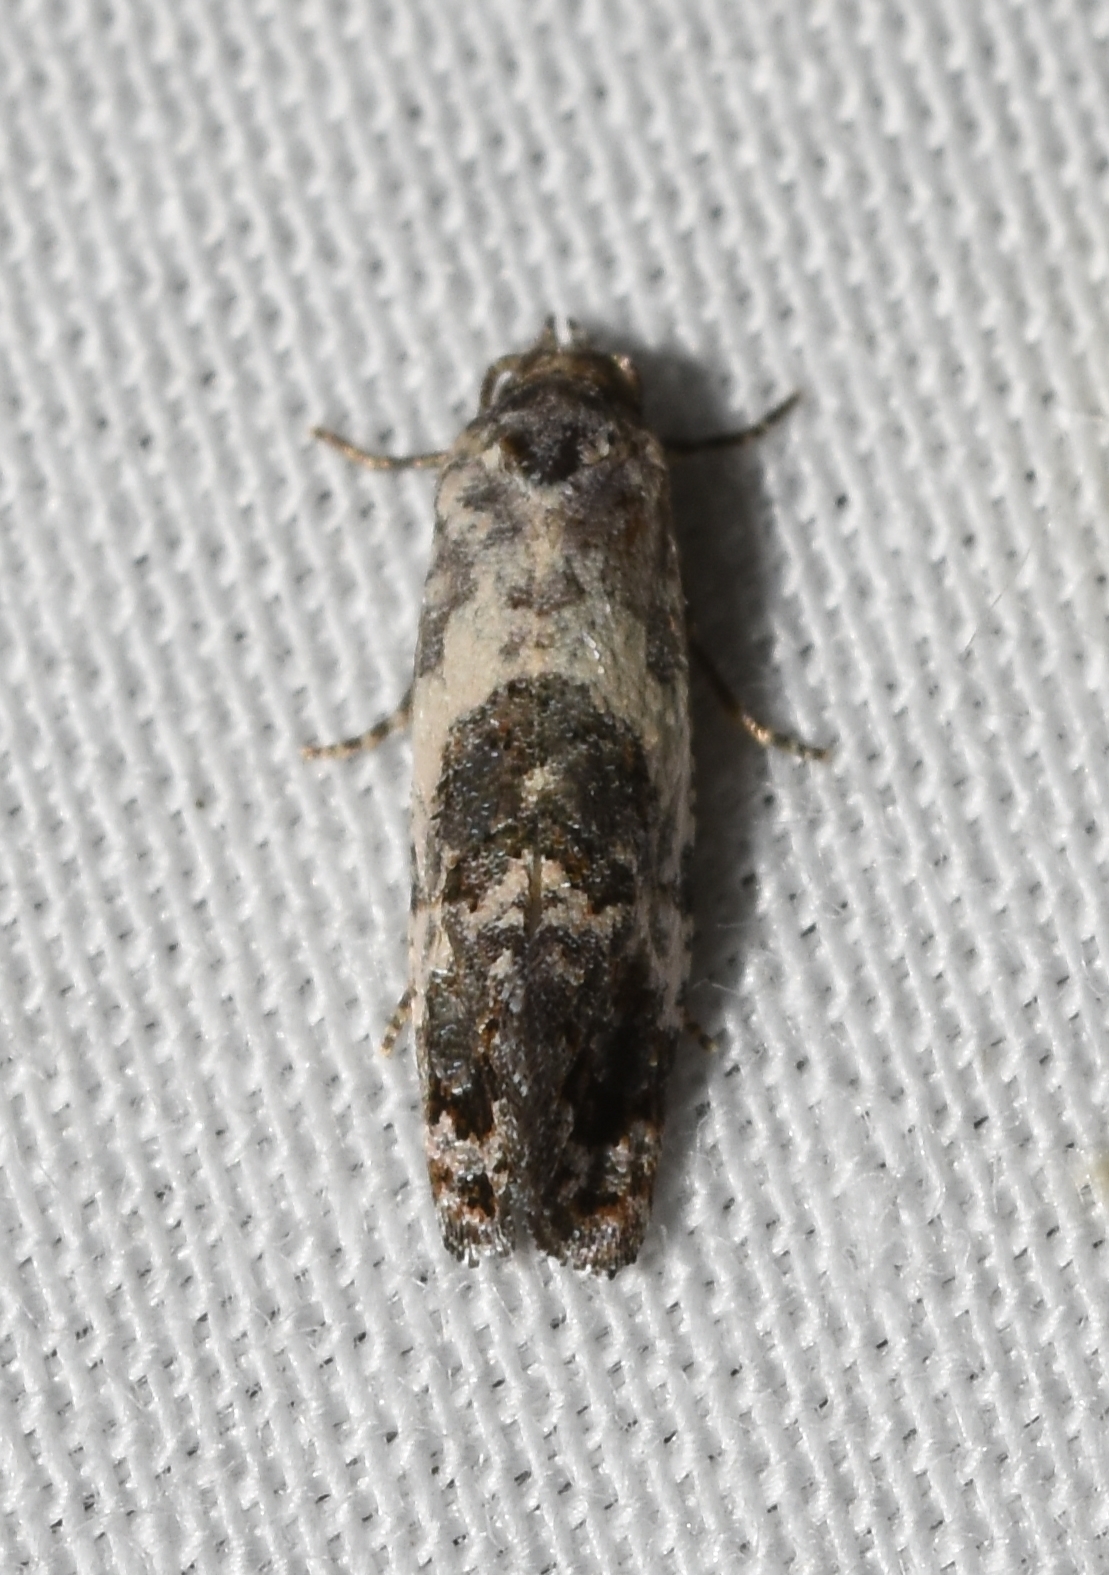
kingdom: Animalia
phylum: Arthropoda
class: Insecta
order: Lepidoptera
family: Tortricidae
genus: Rudenia
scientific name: Rudenia leguminana
